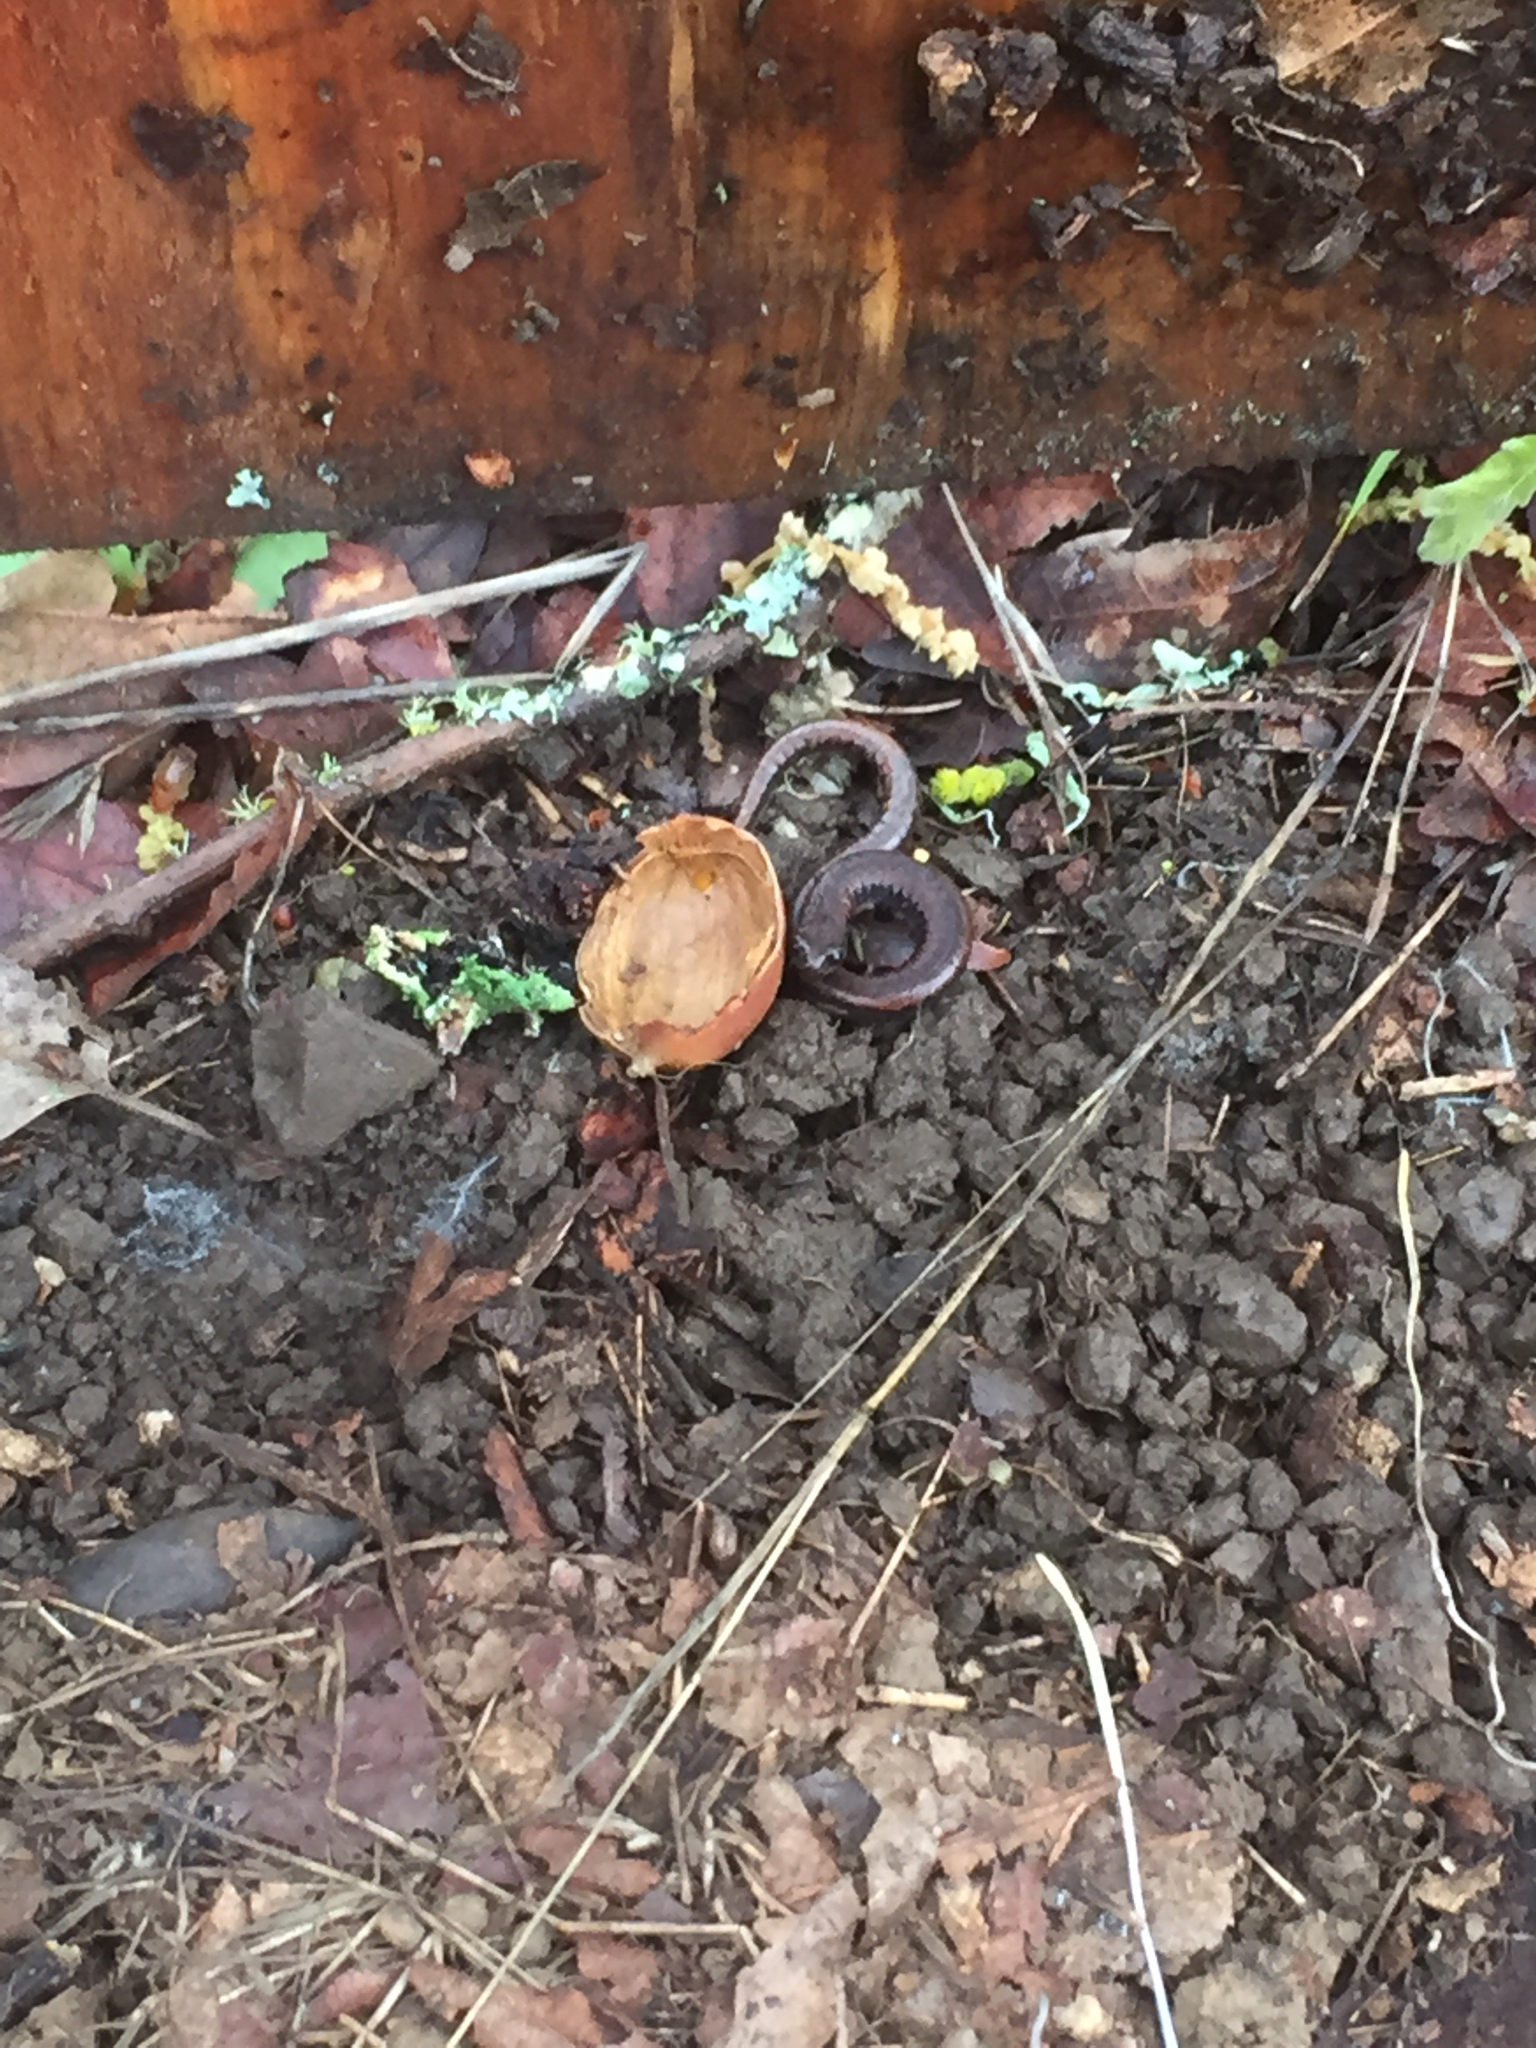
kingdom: Animalia
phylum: Chordata
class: Amphibia
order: Caudata
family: Plethodontidae
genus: Batrachoseps
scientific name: Batrachoseps attenuatus
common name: California slender salamander
